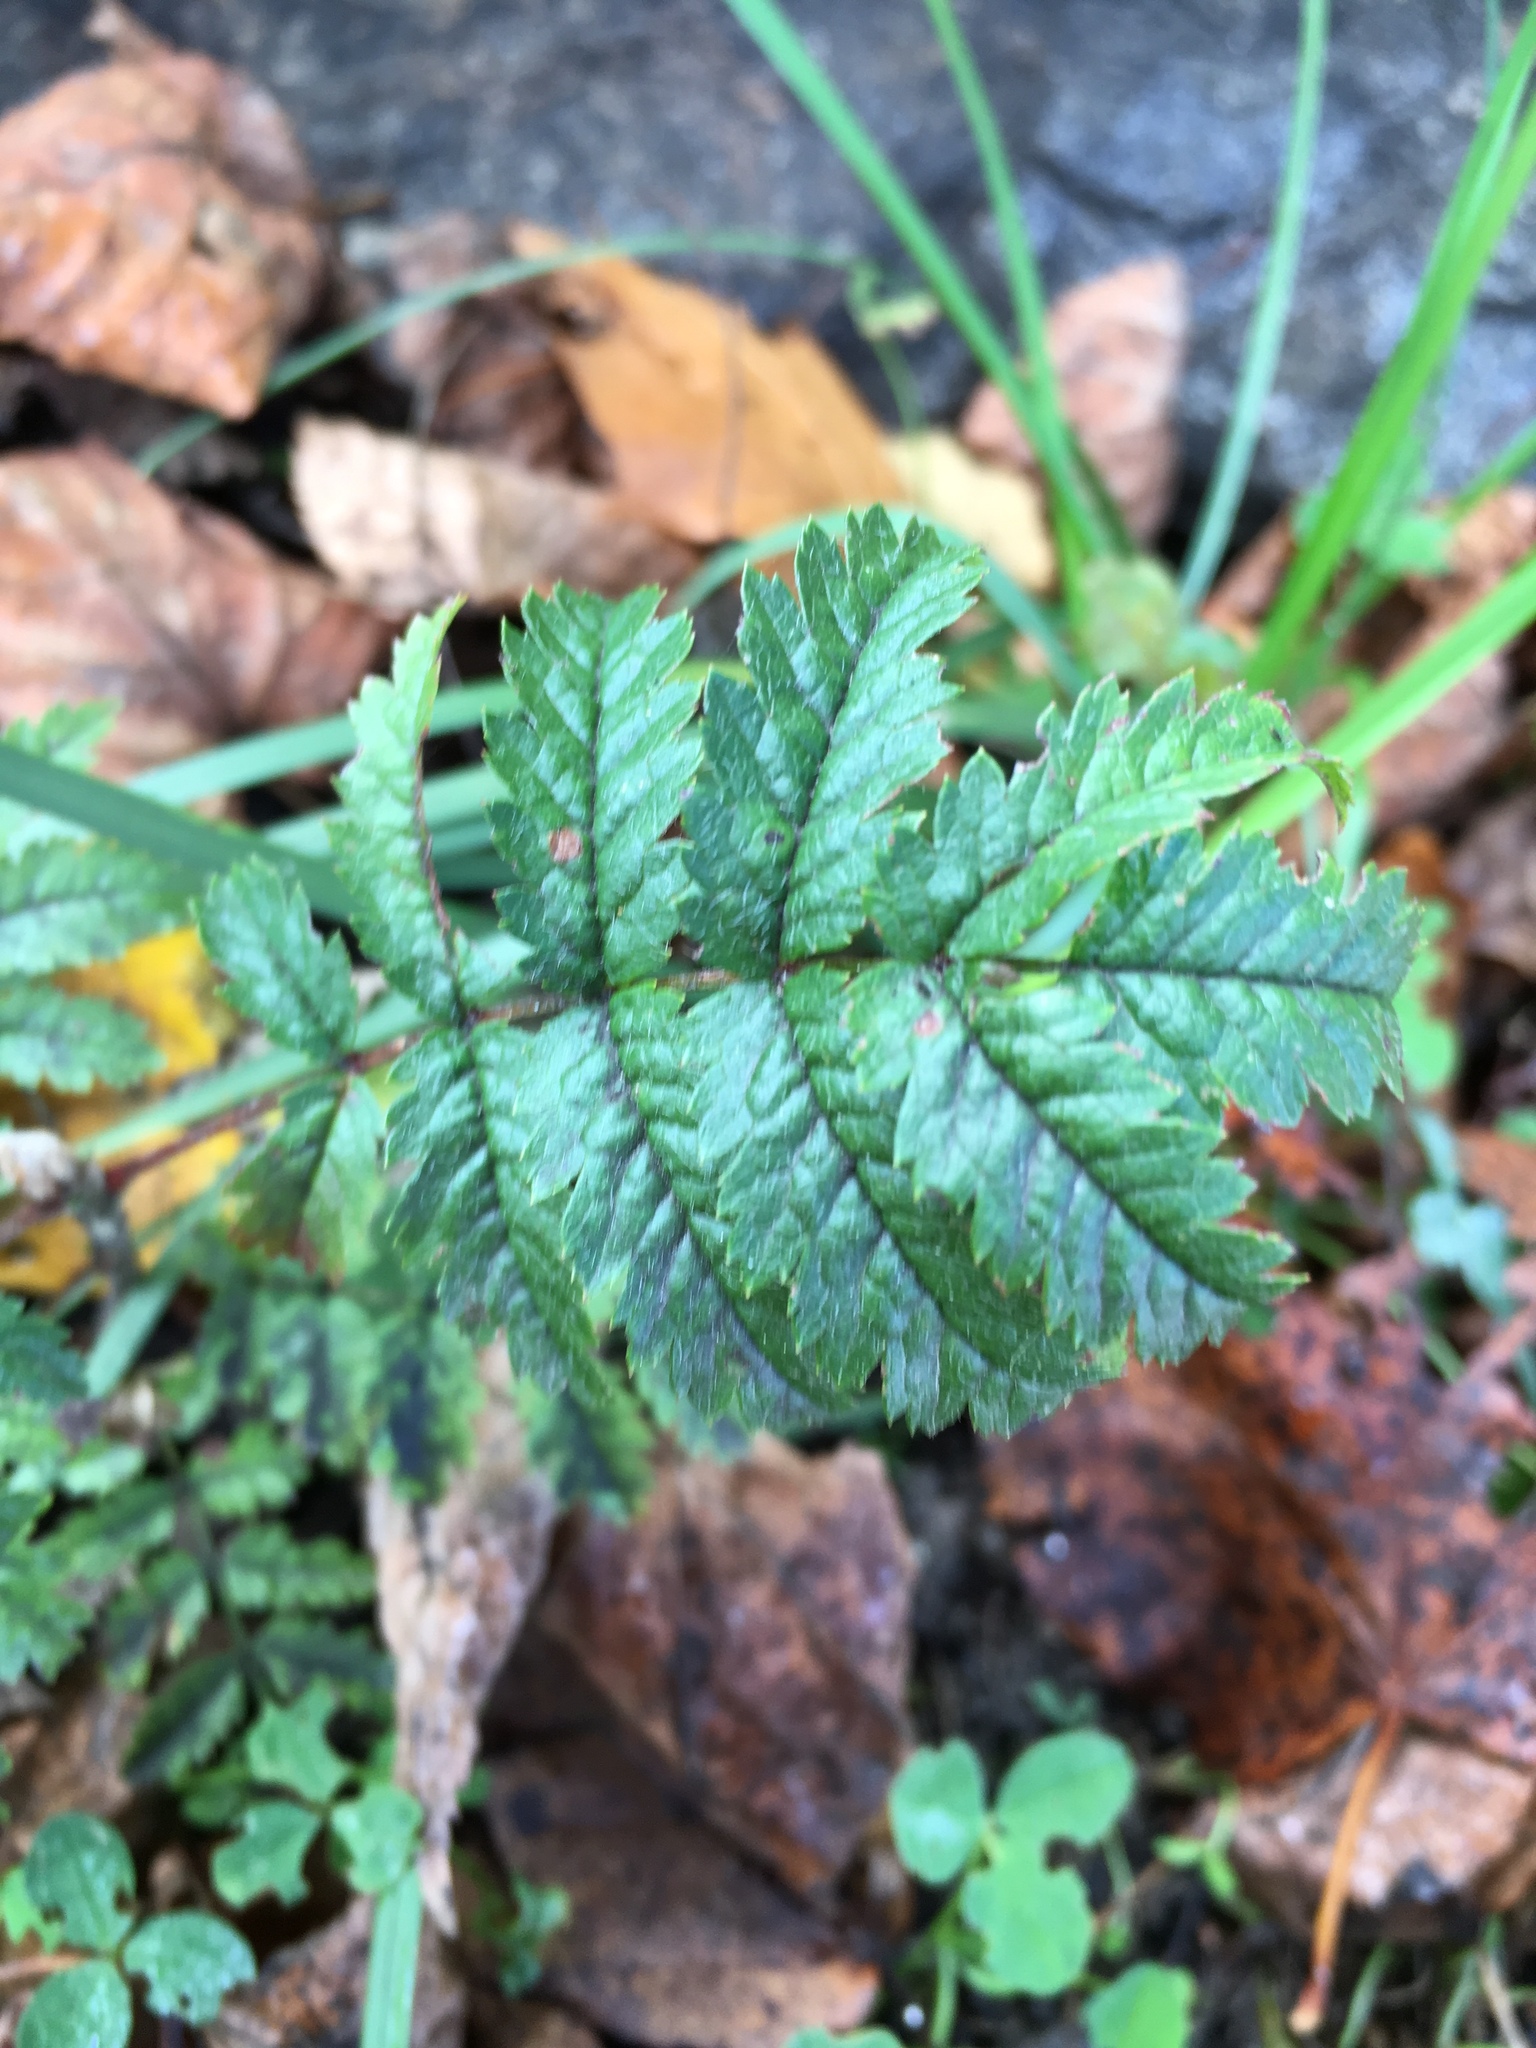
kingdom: Plantae
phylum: Tracheophyta
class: Magnoliopsida
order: Rosales
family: Rosaceae
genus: Sorbus
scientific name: Sorbus aucuparia
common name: Rowan
